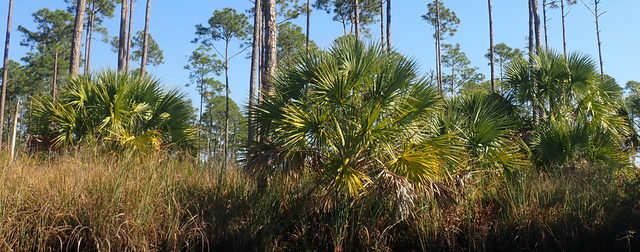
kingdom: Plantae
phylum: Tracheophyta
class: Liliopsida
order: Arecales
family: Arecaceae
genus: Sabal
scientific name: Sabal palmetto
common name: Blue palmetto
